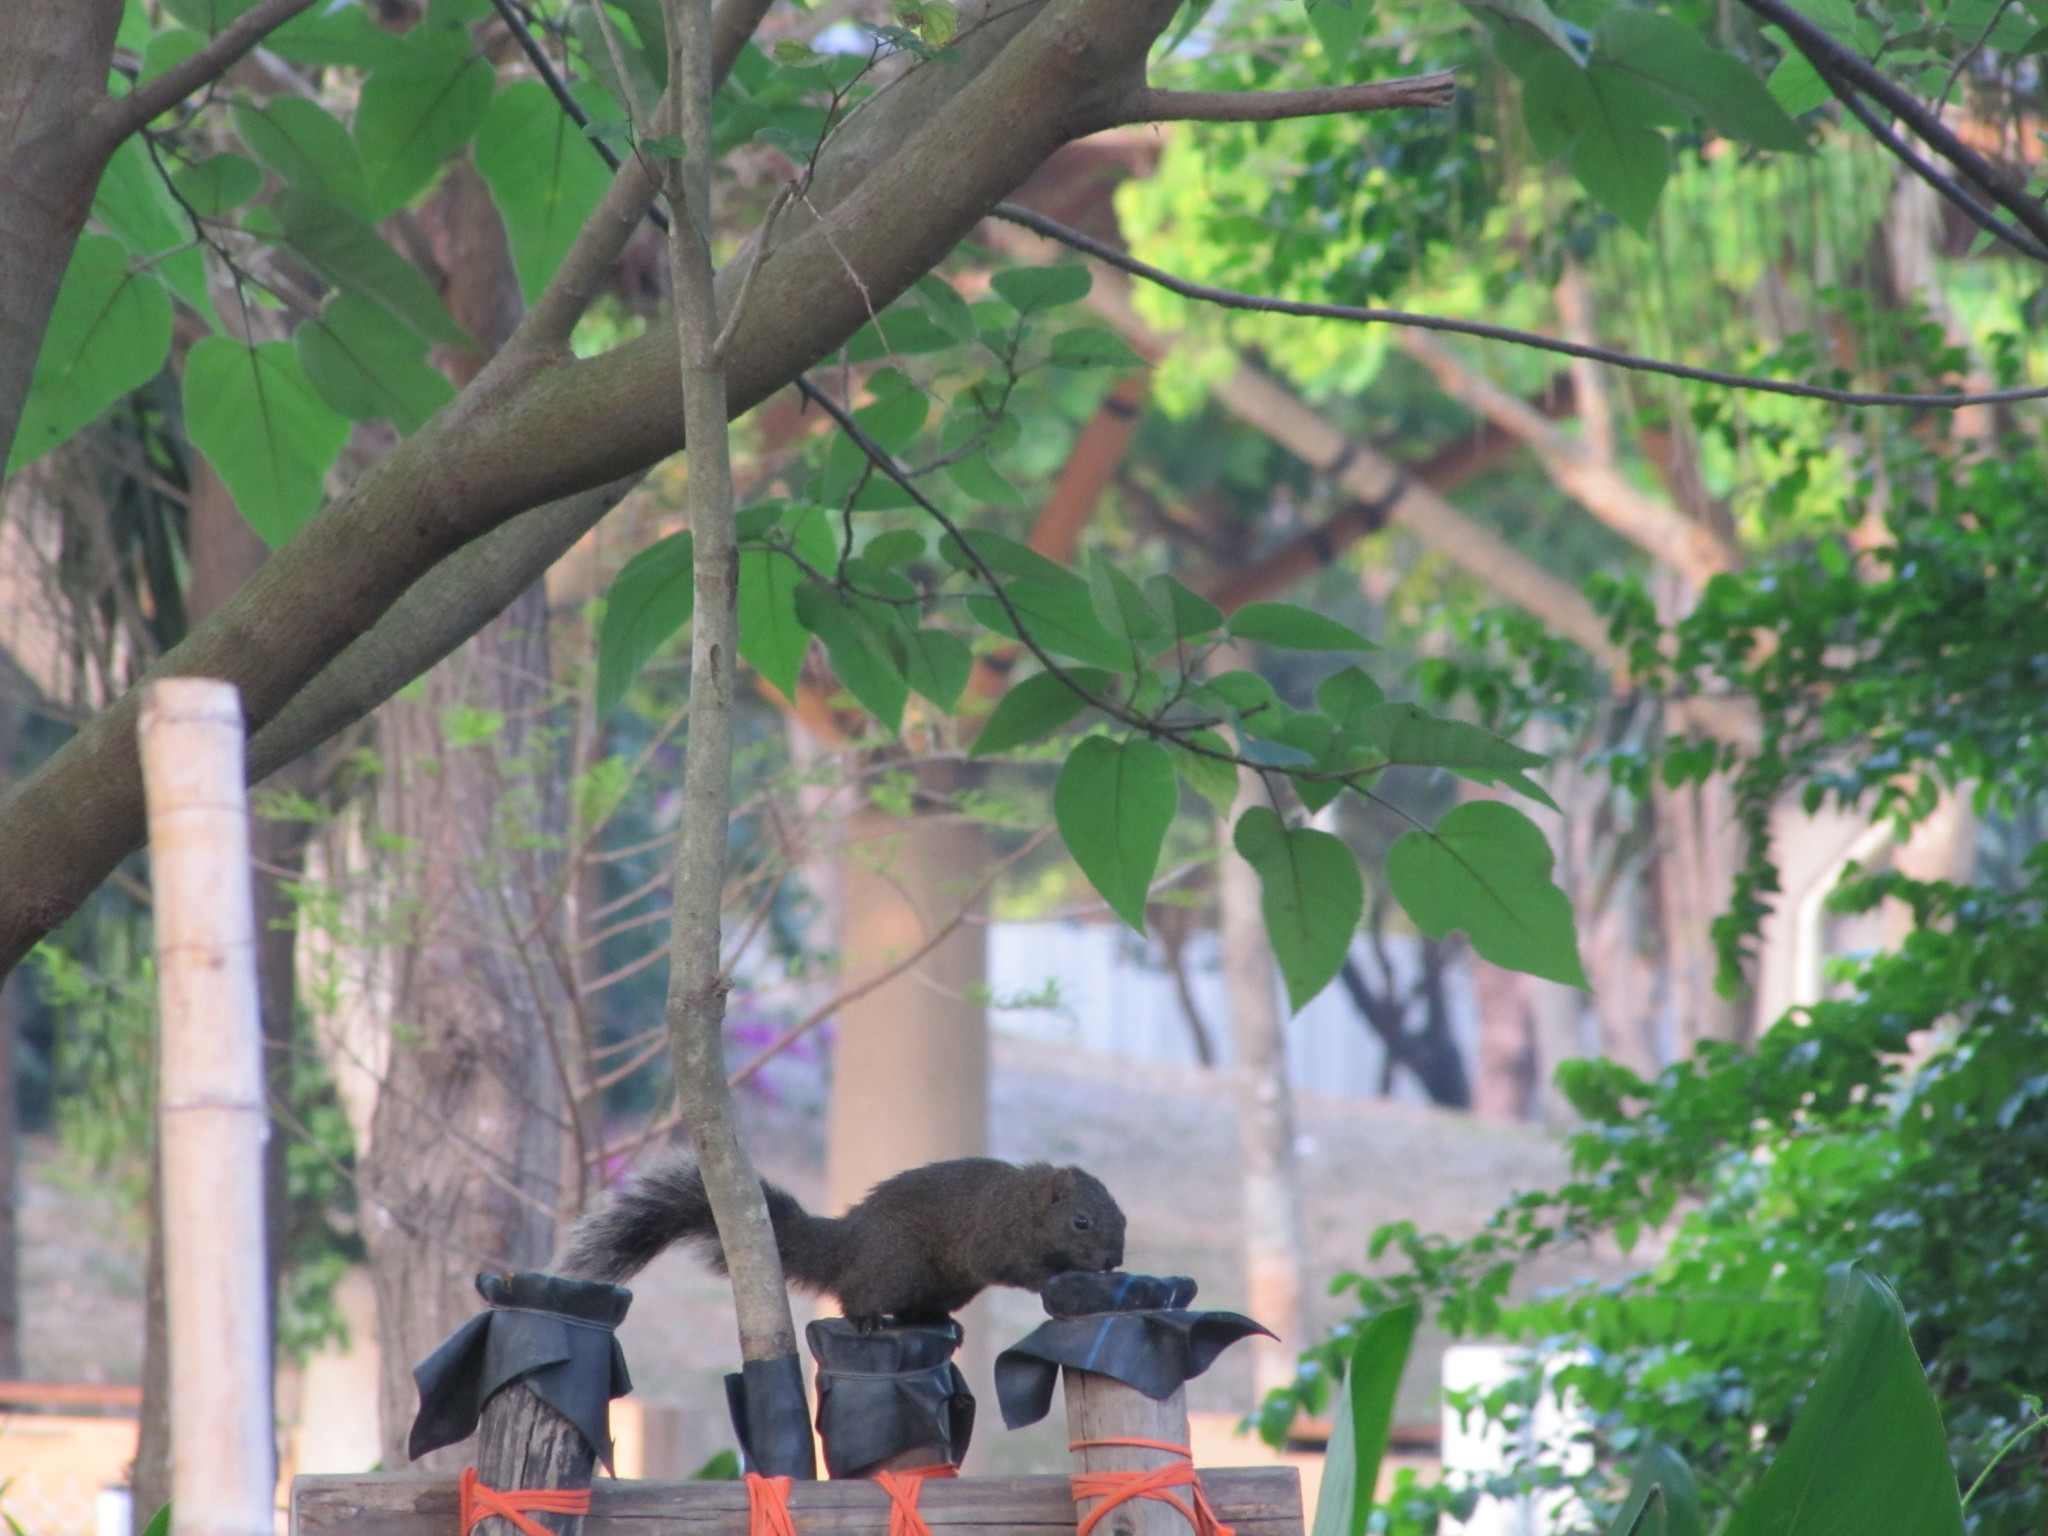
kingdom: Animalia
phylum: Chordata
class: Mammalia
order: Rodentia
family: Sciuridae
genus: Callosciurus
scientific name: Callosciurus erythraeus
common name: Pallas's squirrel
